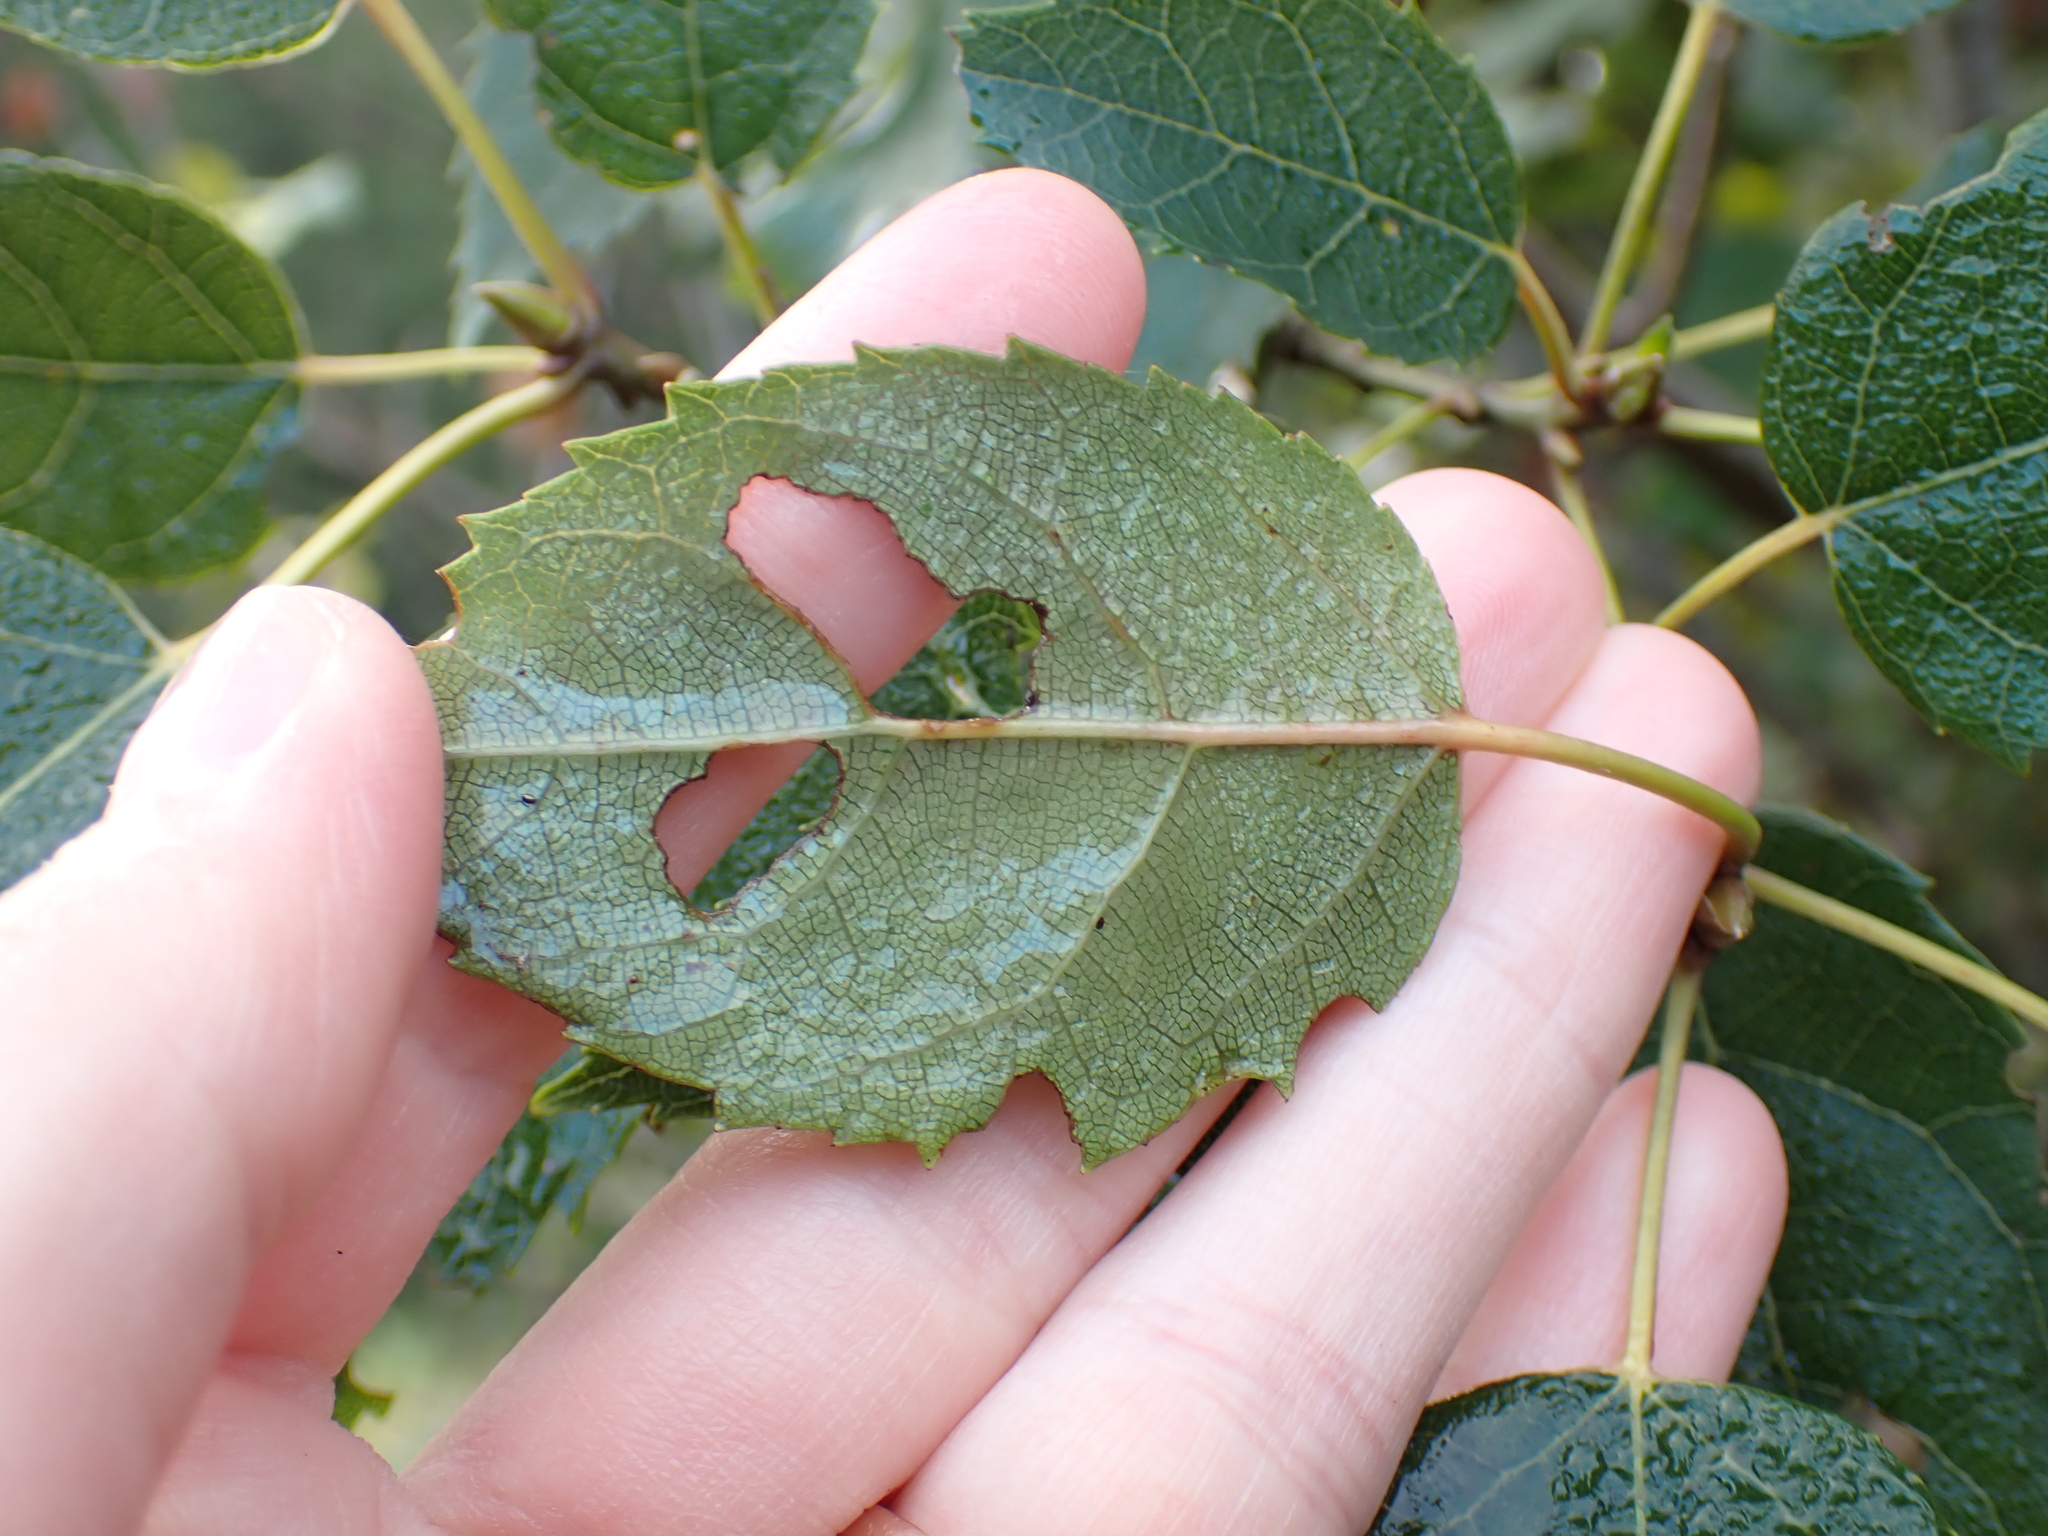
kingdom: Plantae
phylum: Tracheophyta
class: Magnoliopsida
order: Oxalidales
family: Elaeocarpaceae
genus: Aristotelia
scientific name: Aristotelia serrata
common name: New zealand wineberry
